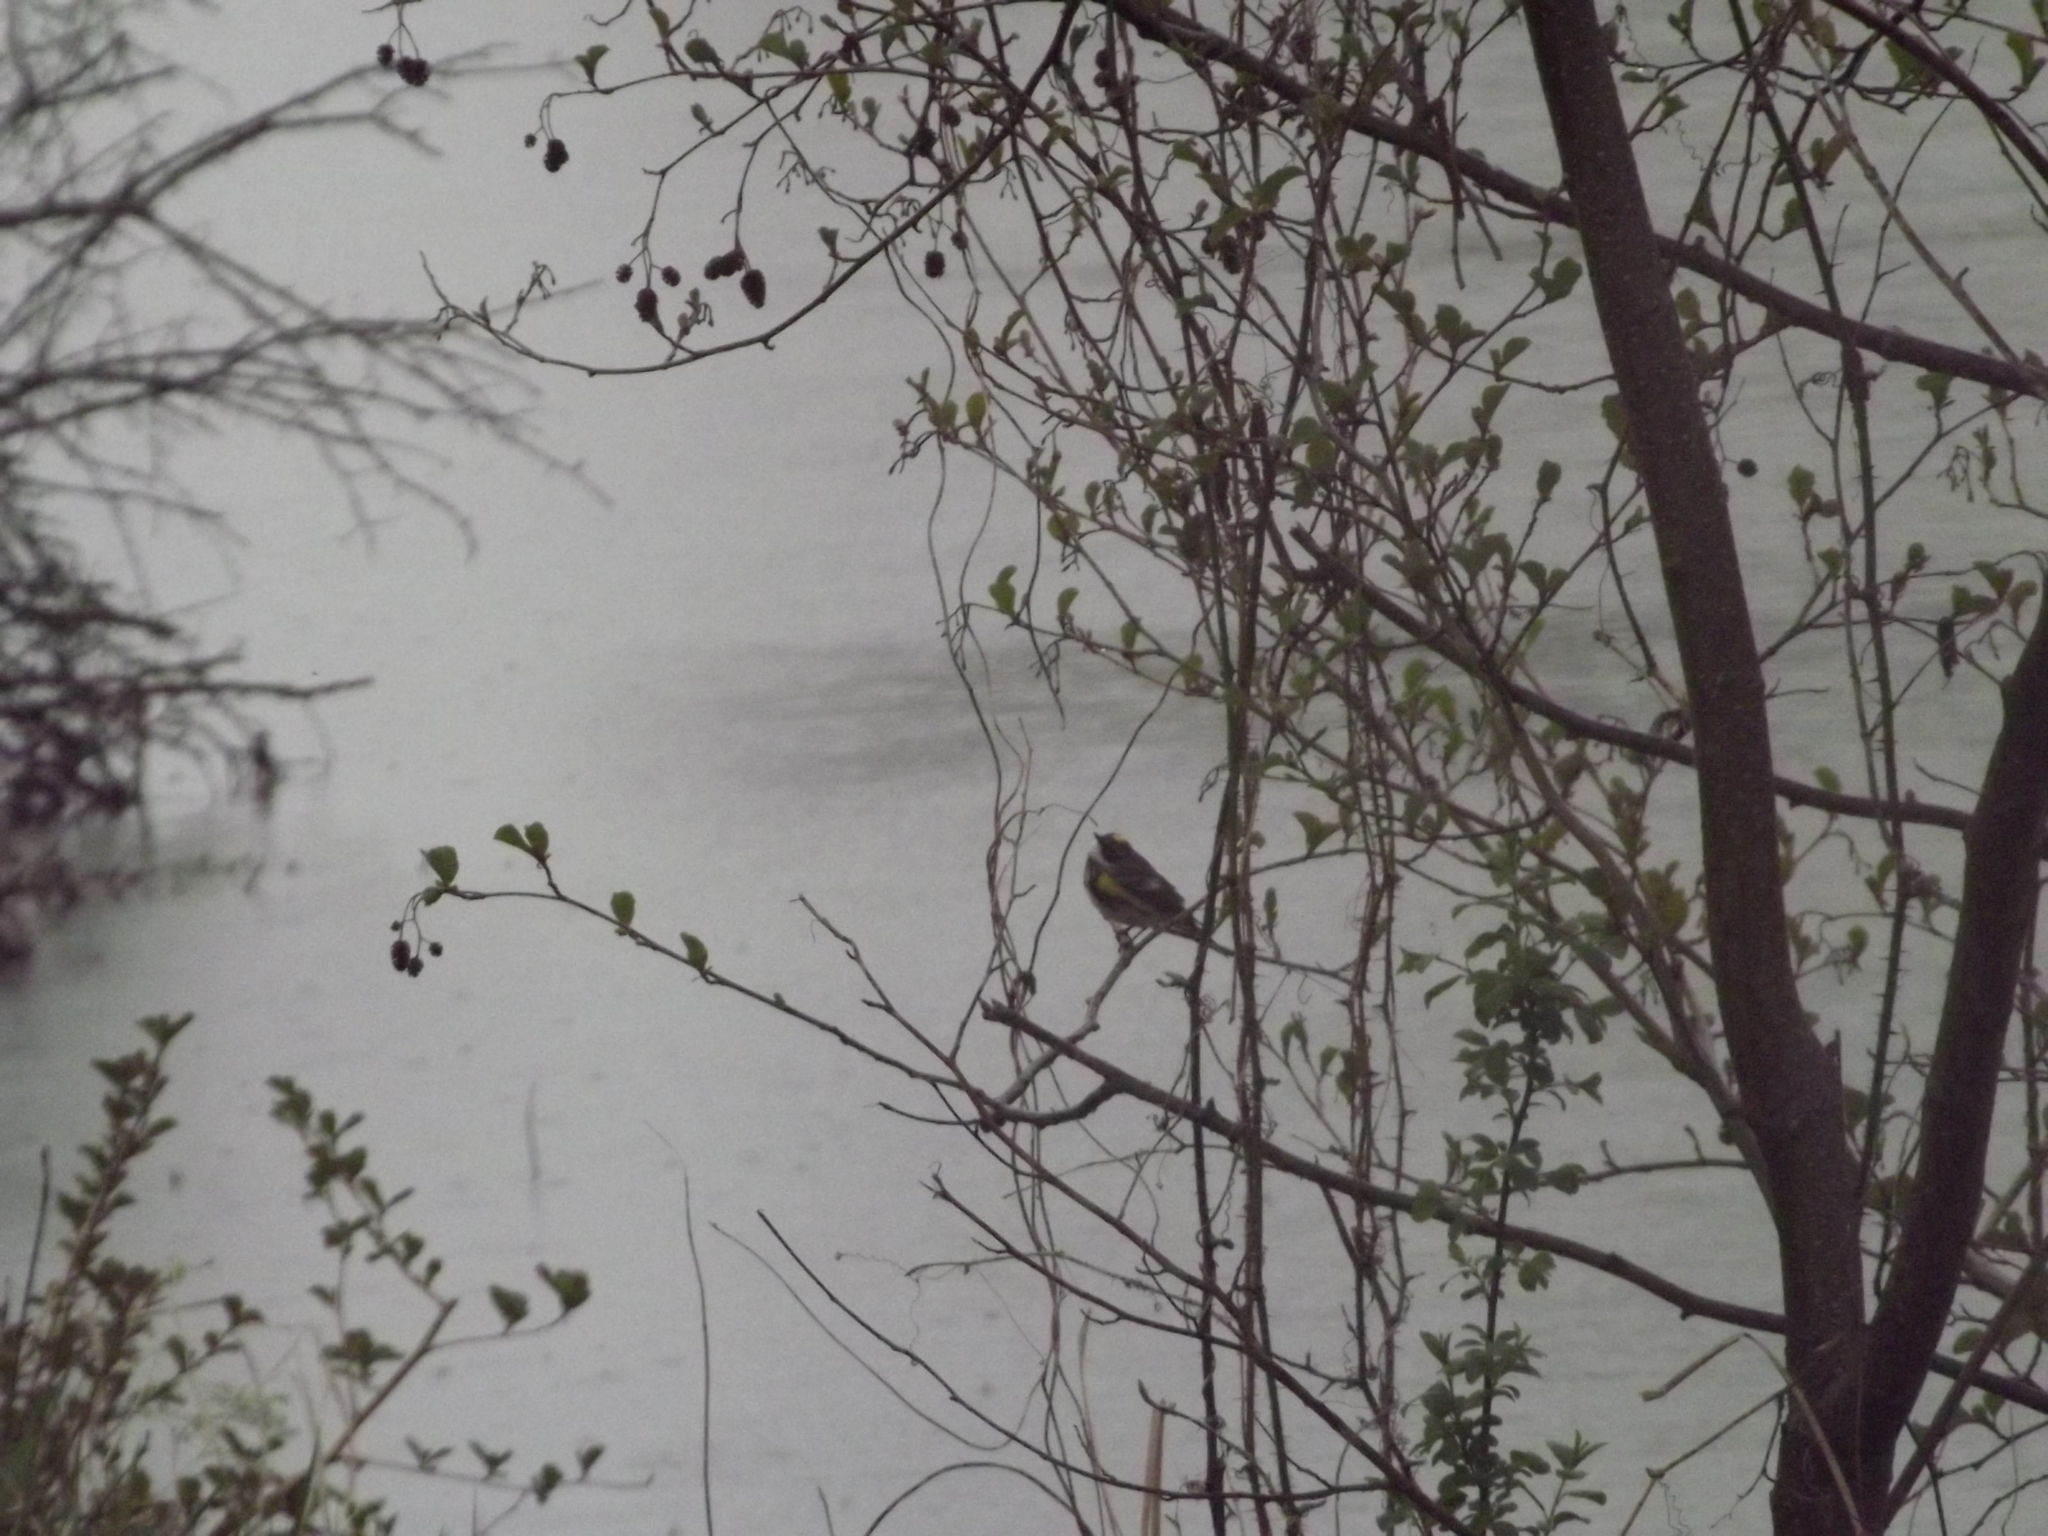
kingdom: Animalia
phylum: Chordata
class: Aves
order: Passeriformes
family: Parulidae
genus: Setophaga
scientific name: Setophaga coronata
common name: Myrtle warbler
